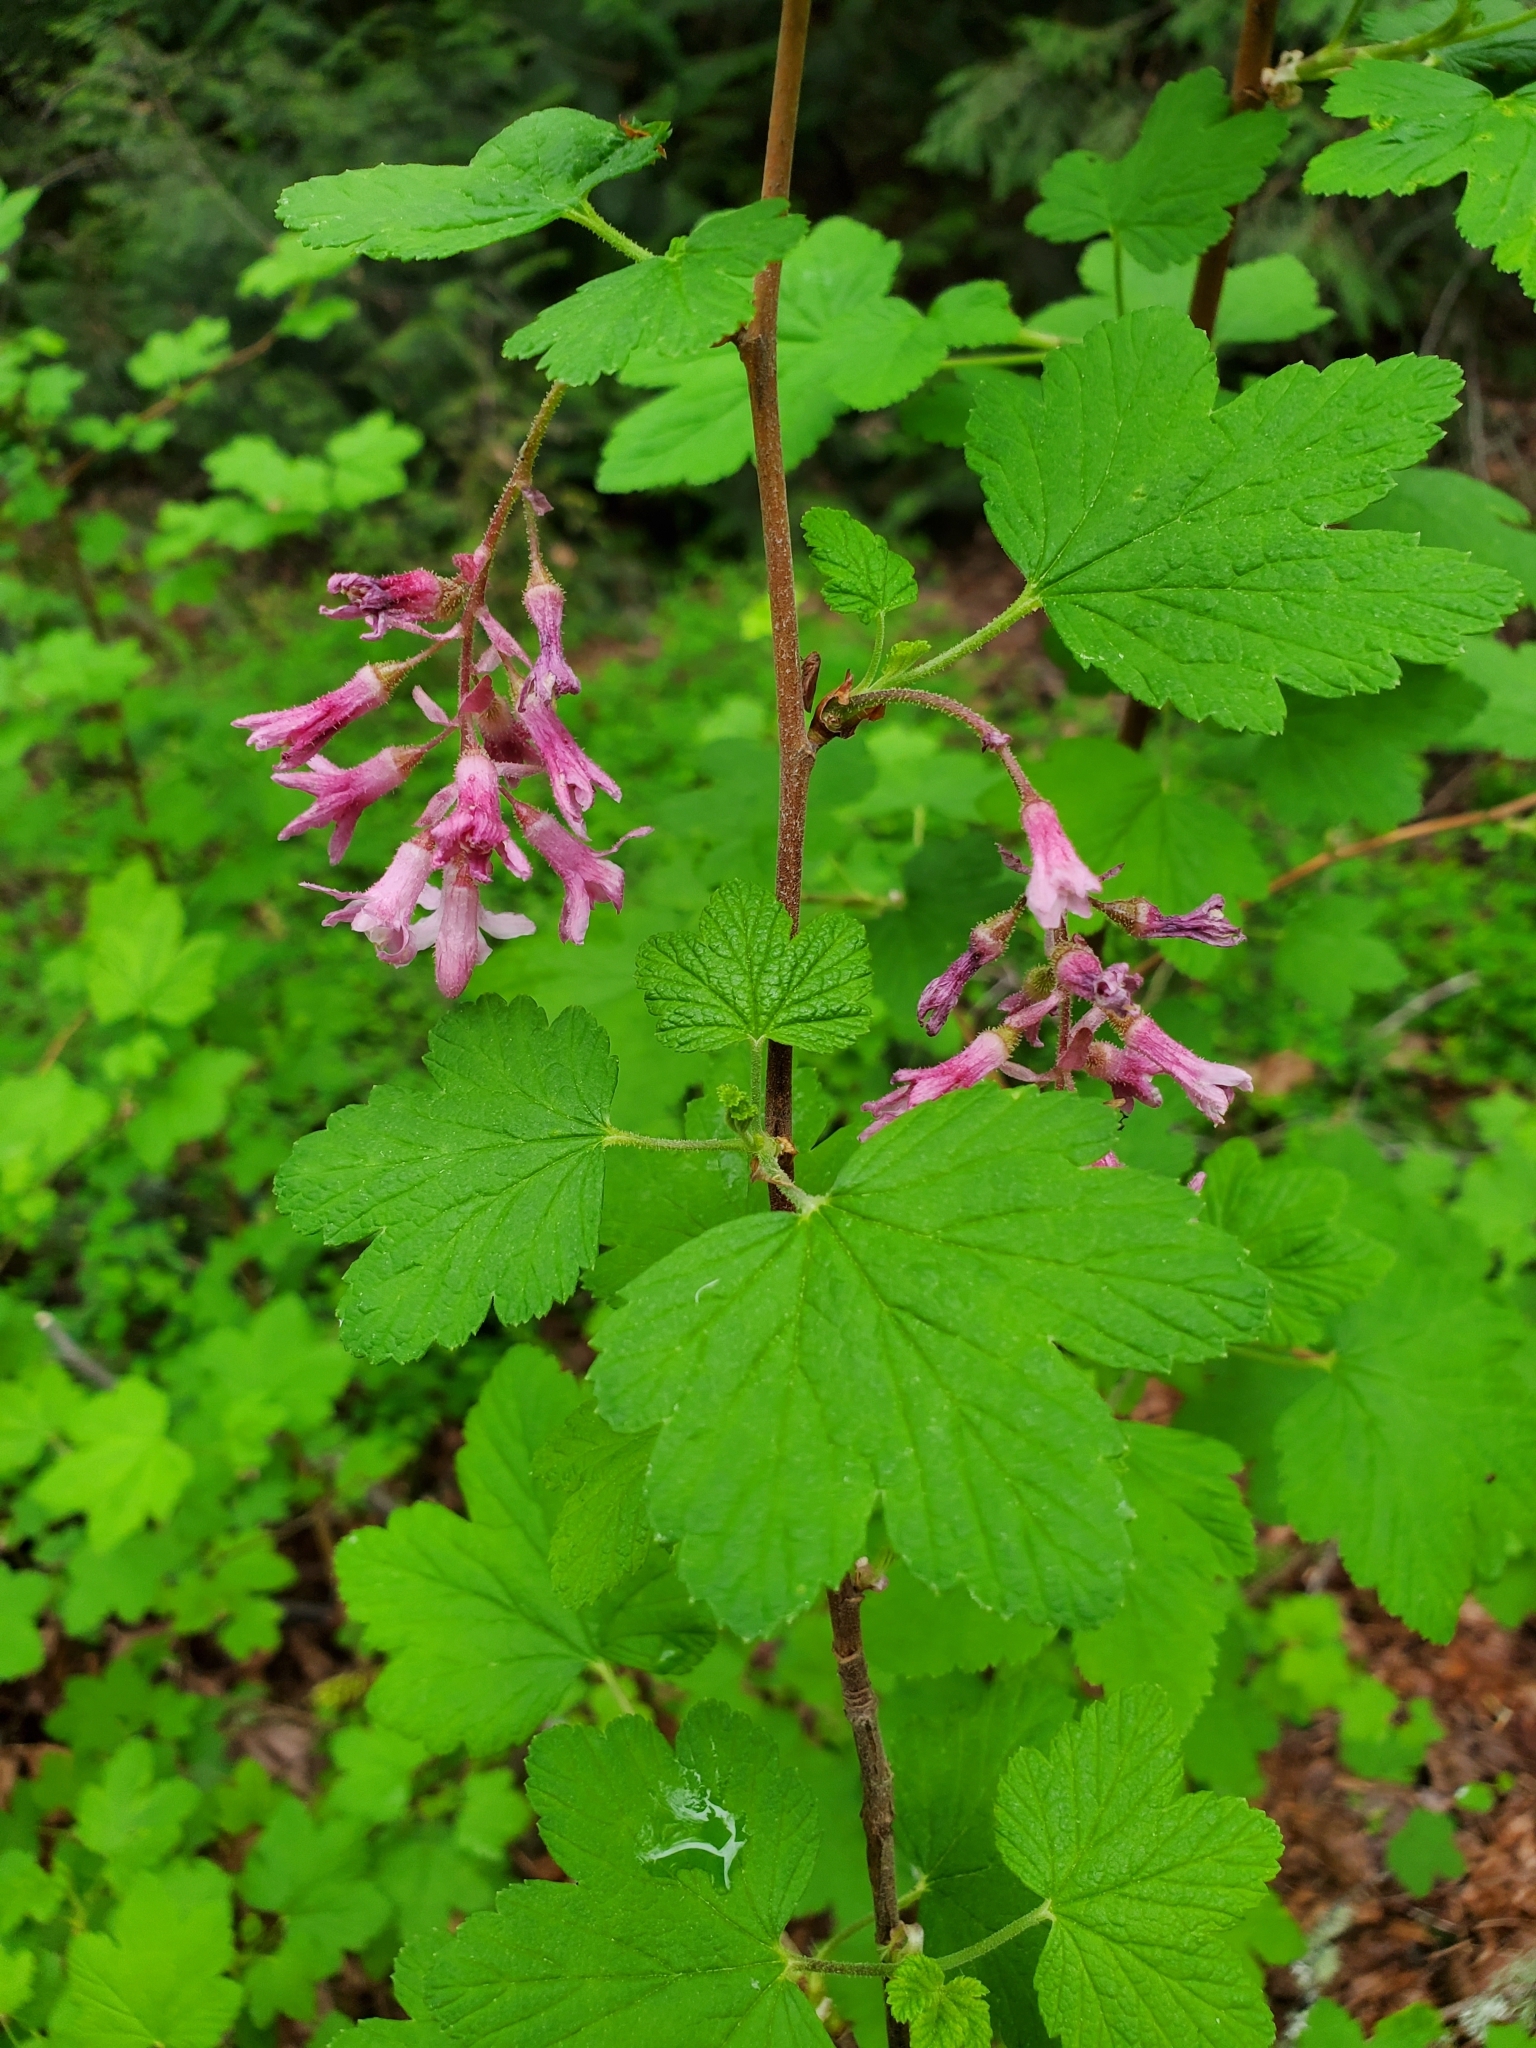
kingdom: Plantae
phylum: Tracheophyta
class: Magnoliopsida
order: Saxifragales
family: Grossulariaceae
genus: Ribes
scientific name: Ribes sanguineum
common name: Flowering currant
